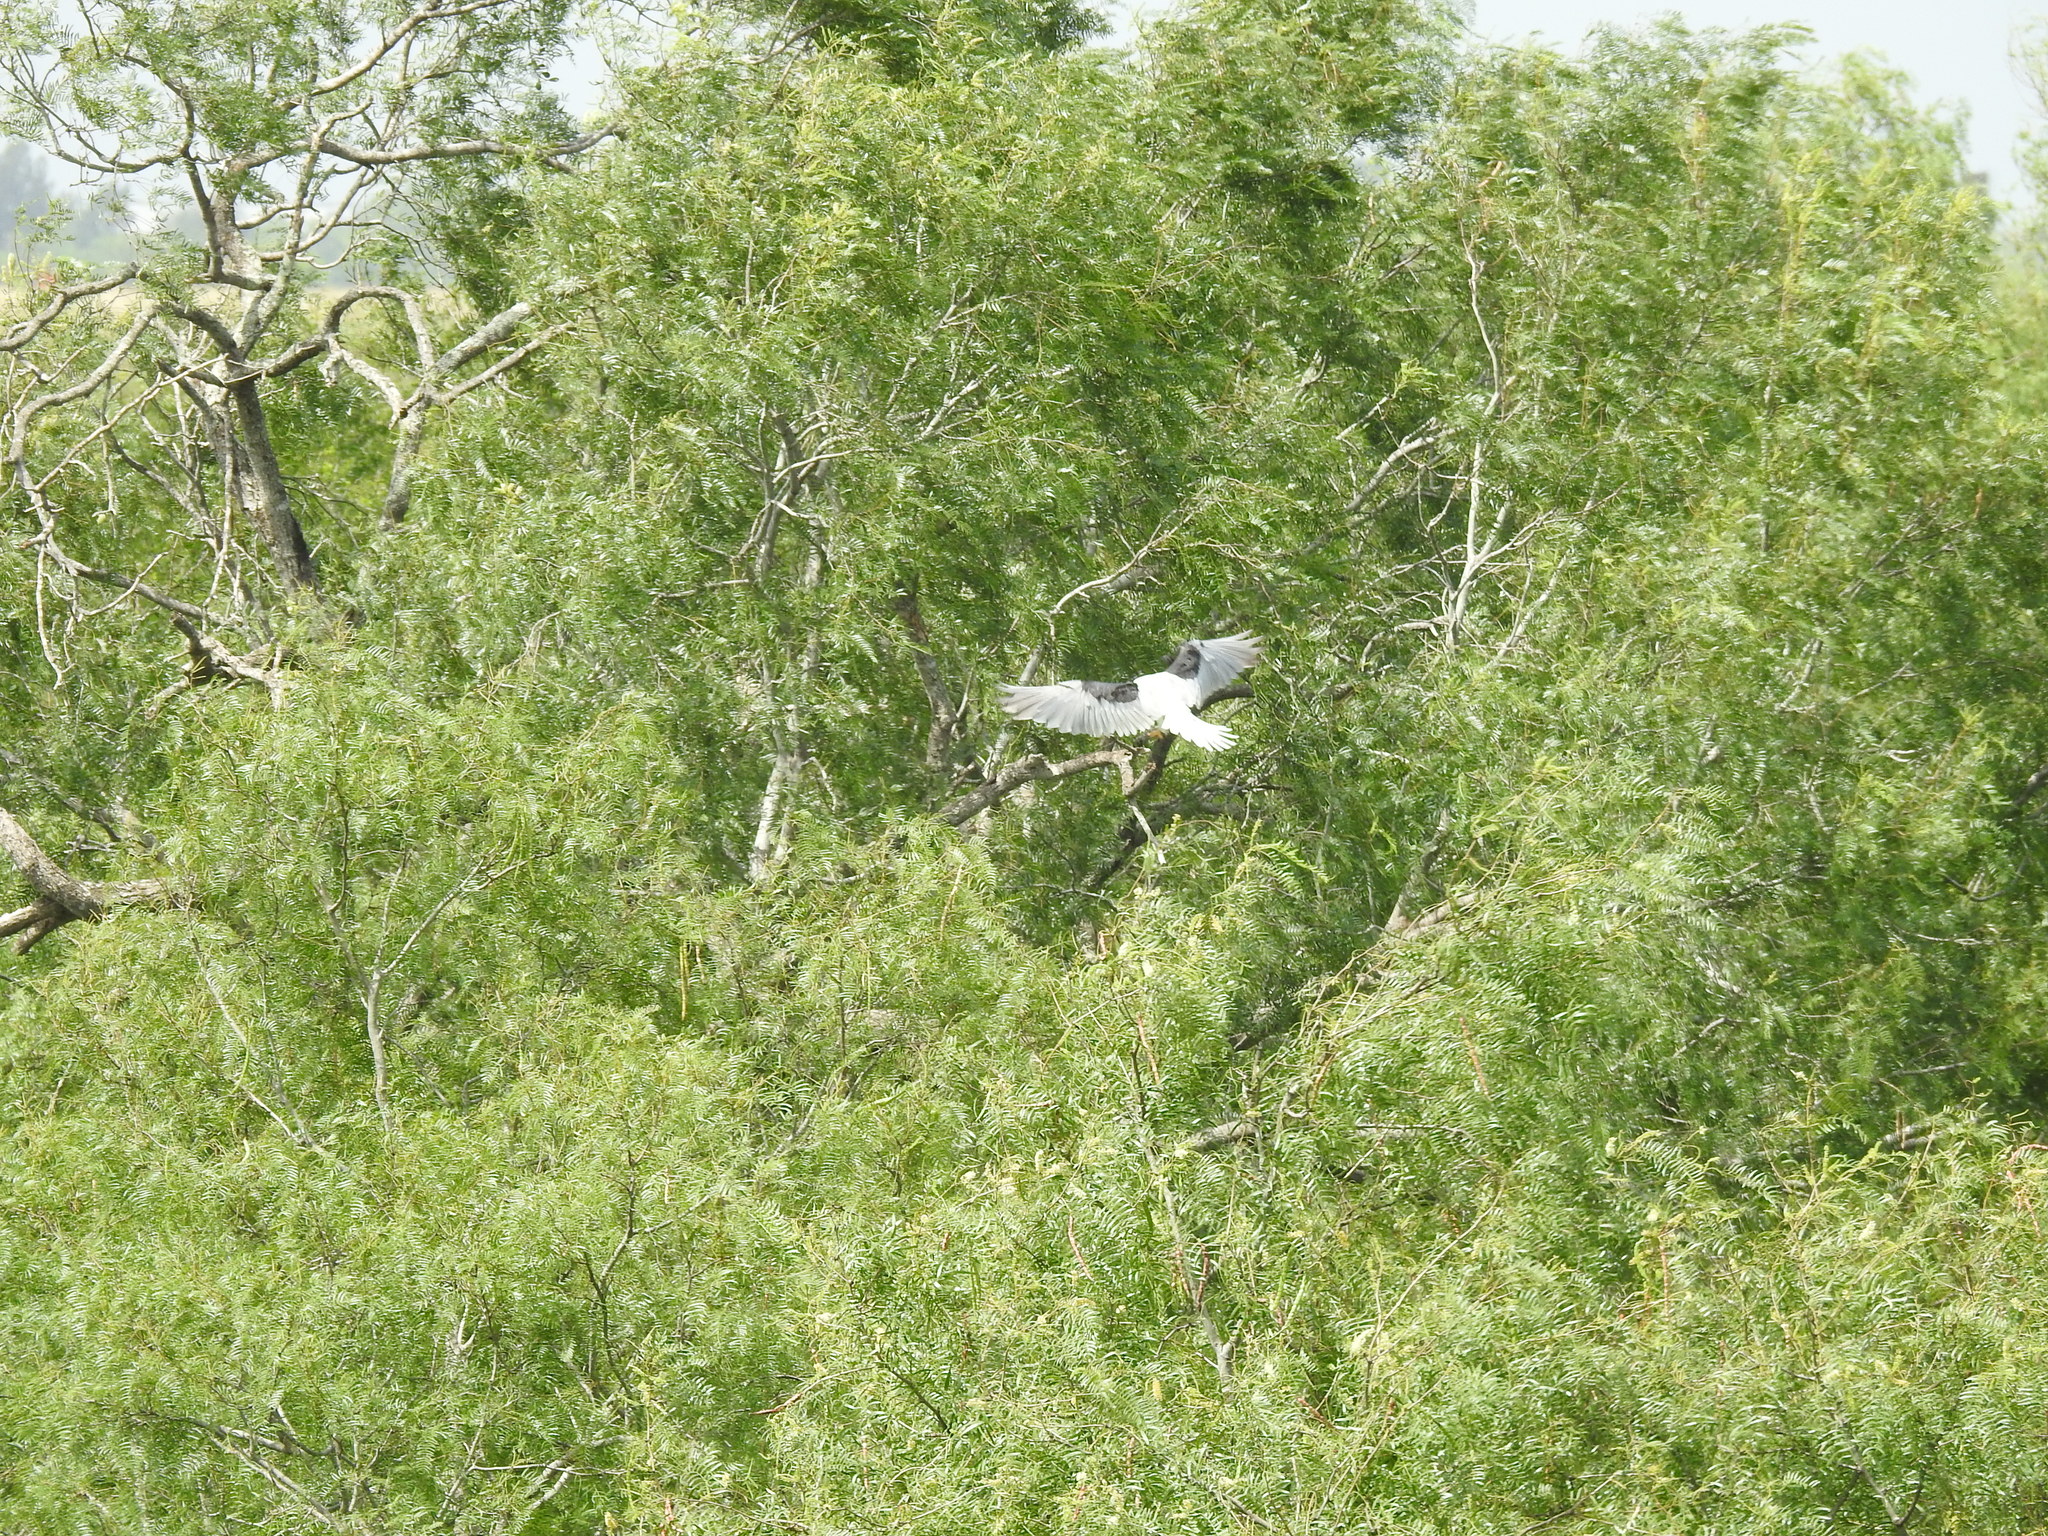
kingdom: Animalia
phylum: Chordata
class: Aves
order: Accipitriformes
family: Accipitridae
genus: Elanus
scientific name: Elanus leucurus
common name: White-tailed kite
